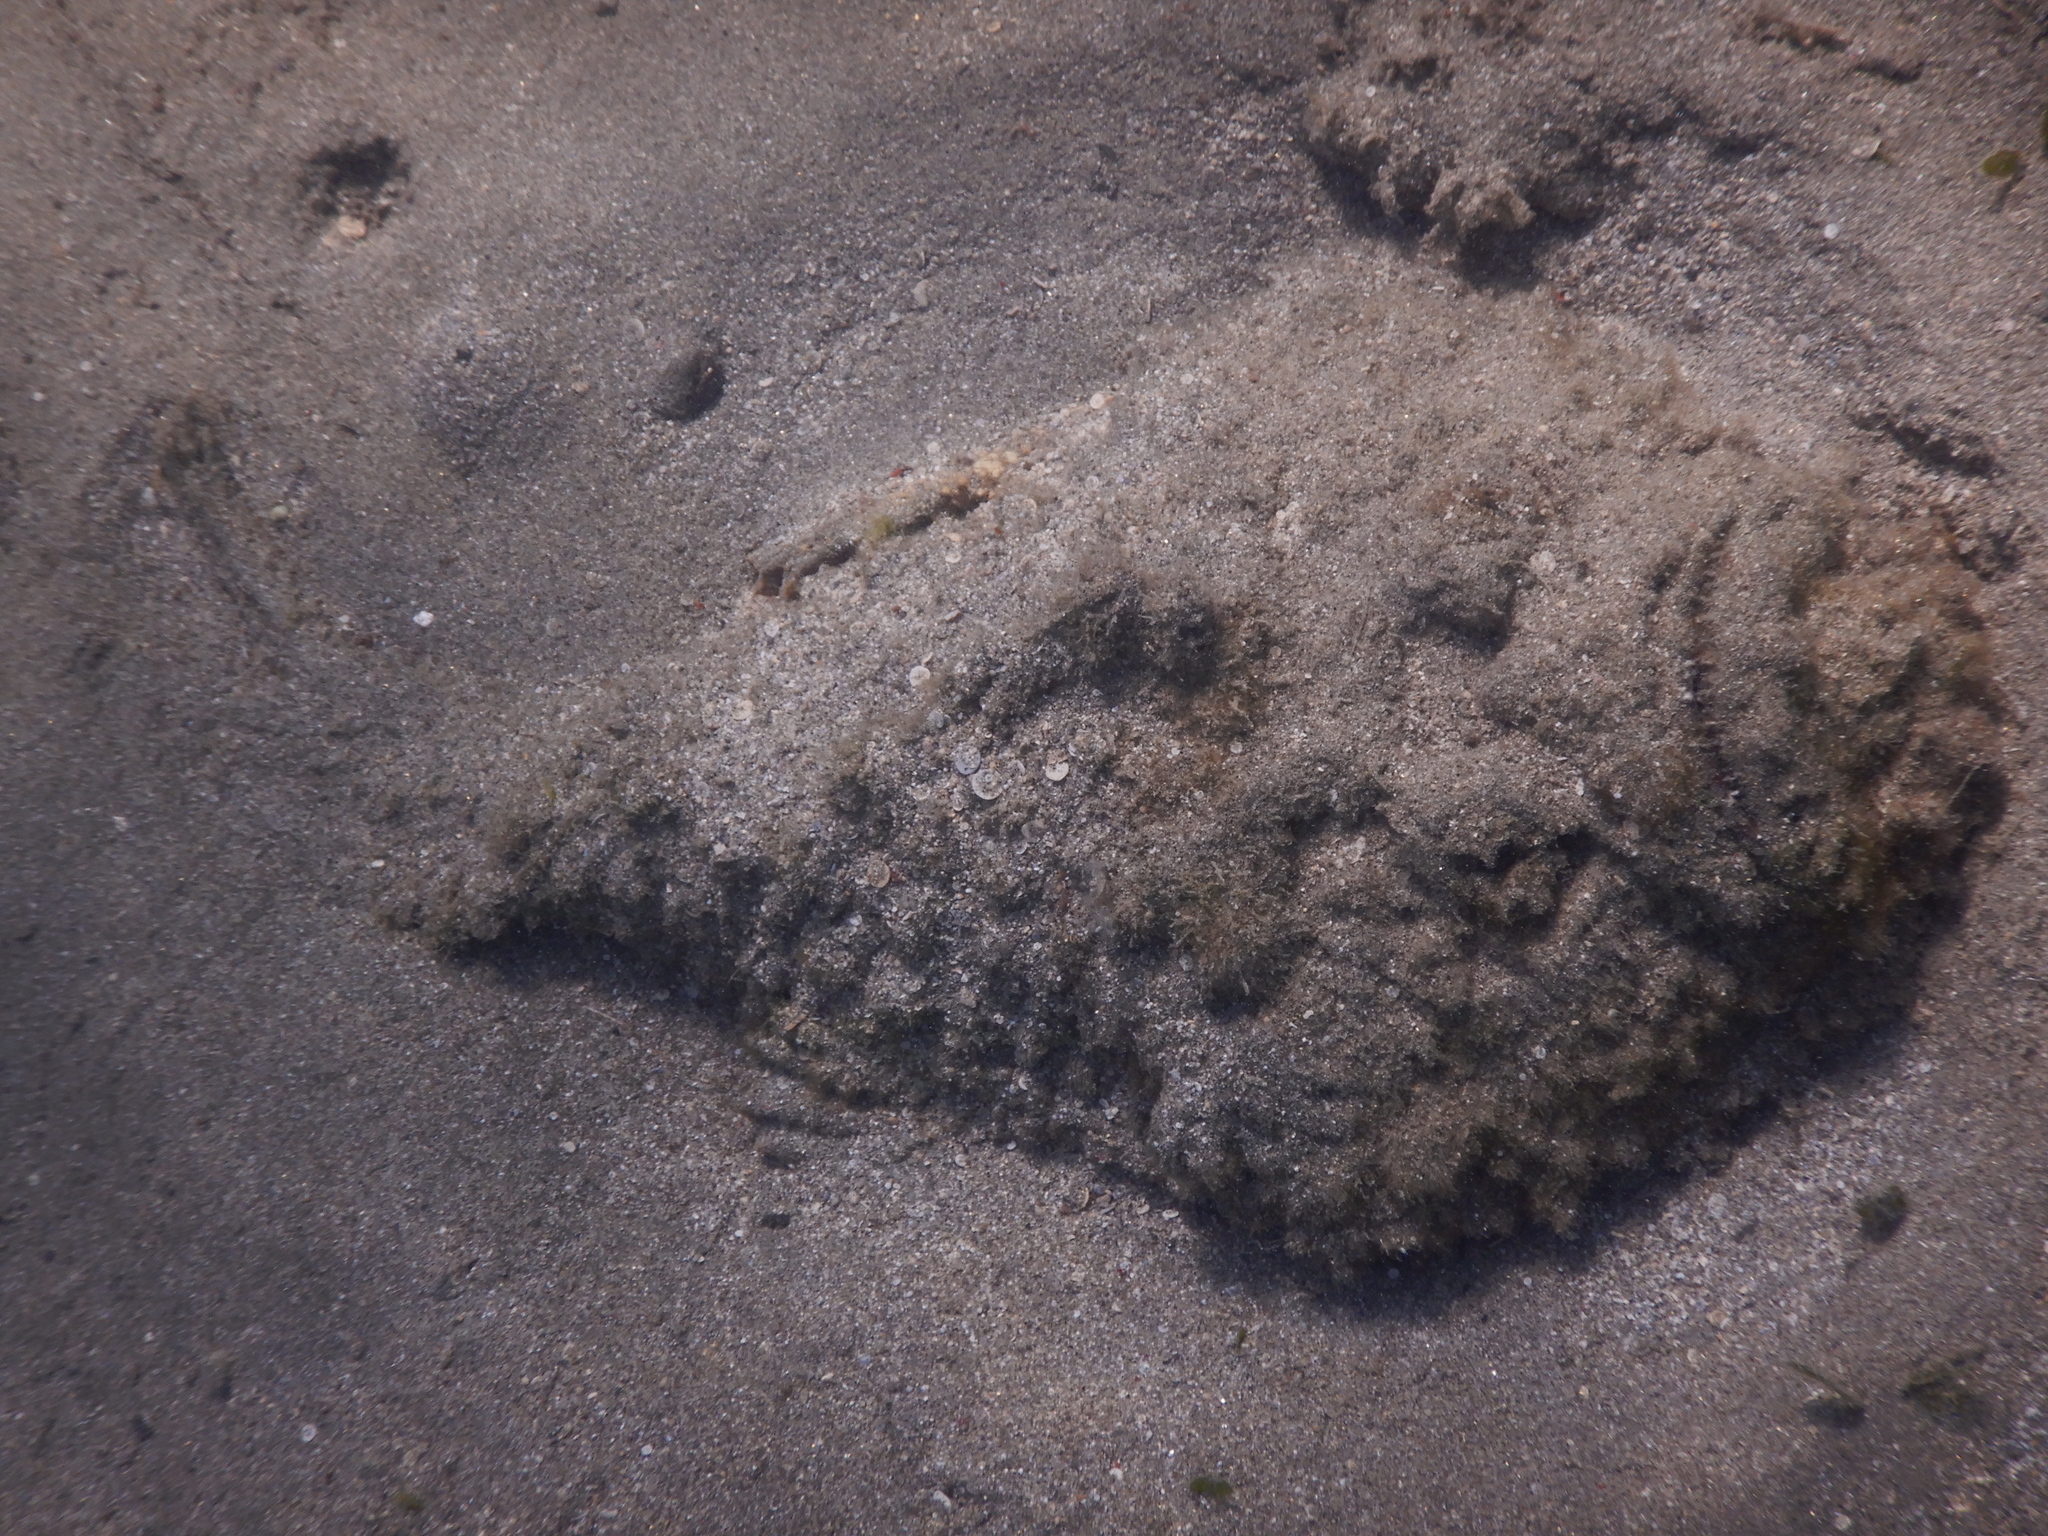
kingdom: Animalia
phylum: Chordata
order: Scorpaeniformes
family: Synanceiidae
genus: Synanceia
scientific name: Synanceia verrucosa
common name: Stonefish
